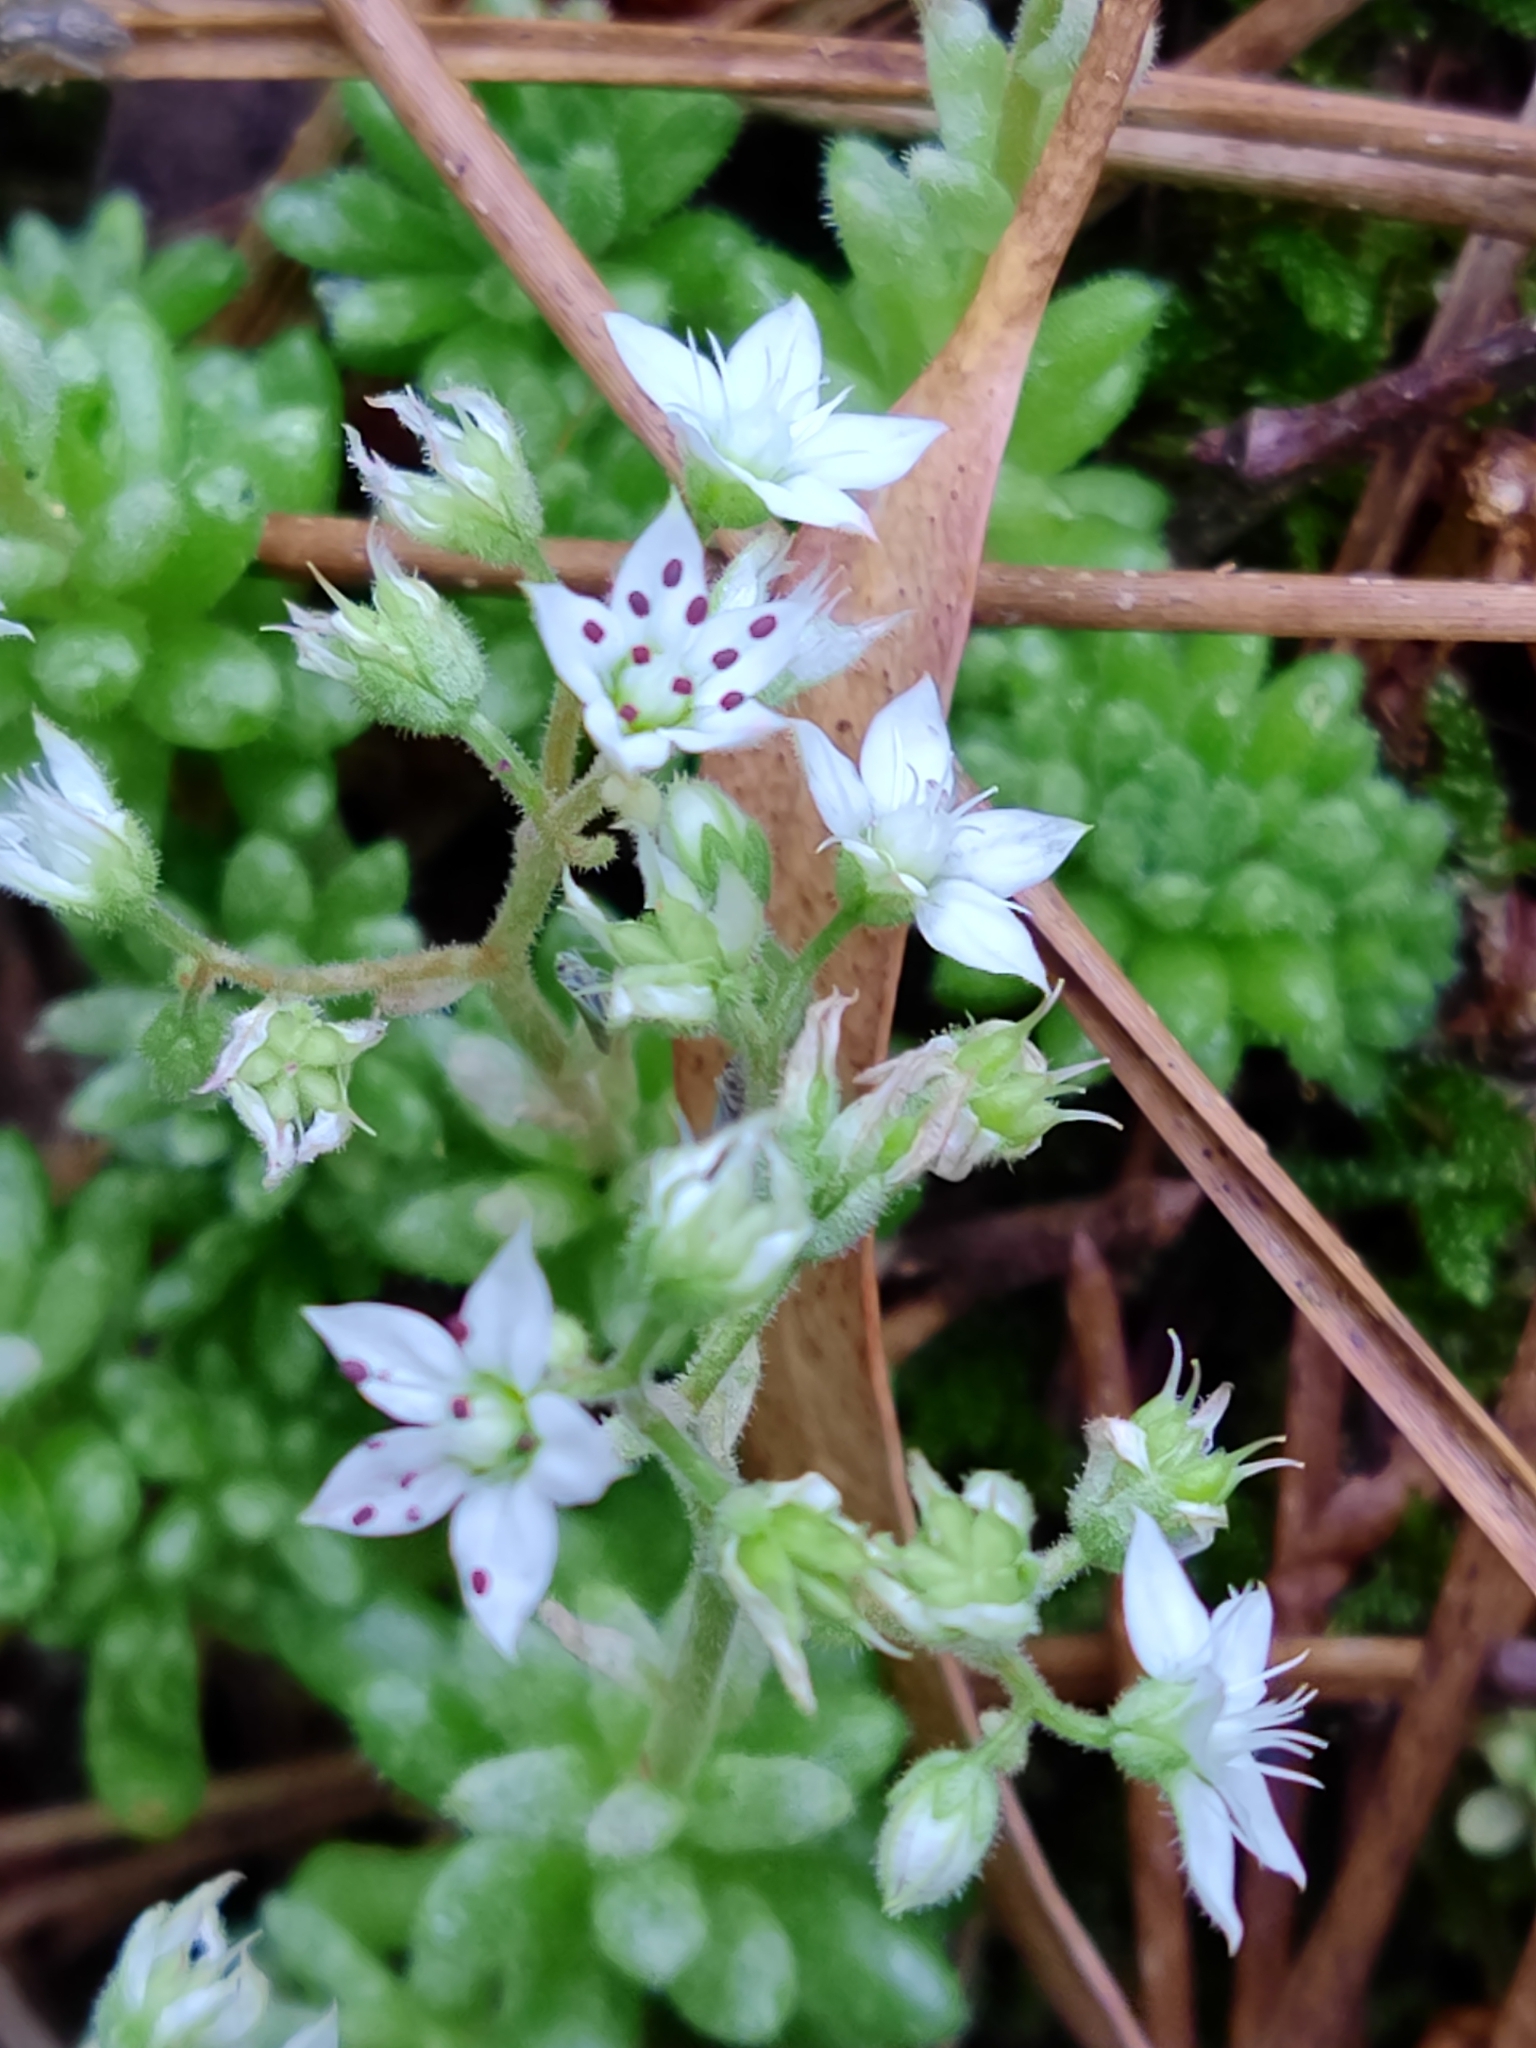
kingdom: Plantae
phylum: Tracheophyta
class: Magnoliopsida
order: Saxifragales
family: Crassulaceae
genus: Sedum
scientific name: Sedum hirsutum
